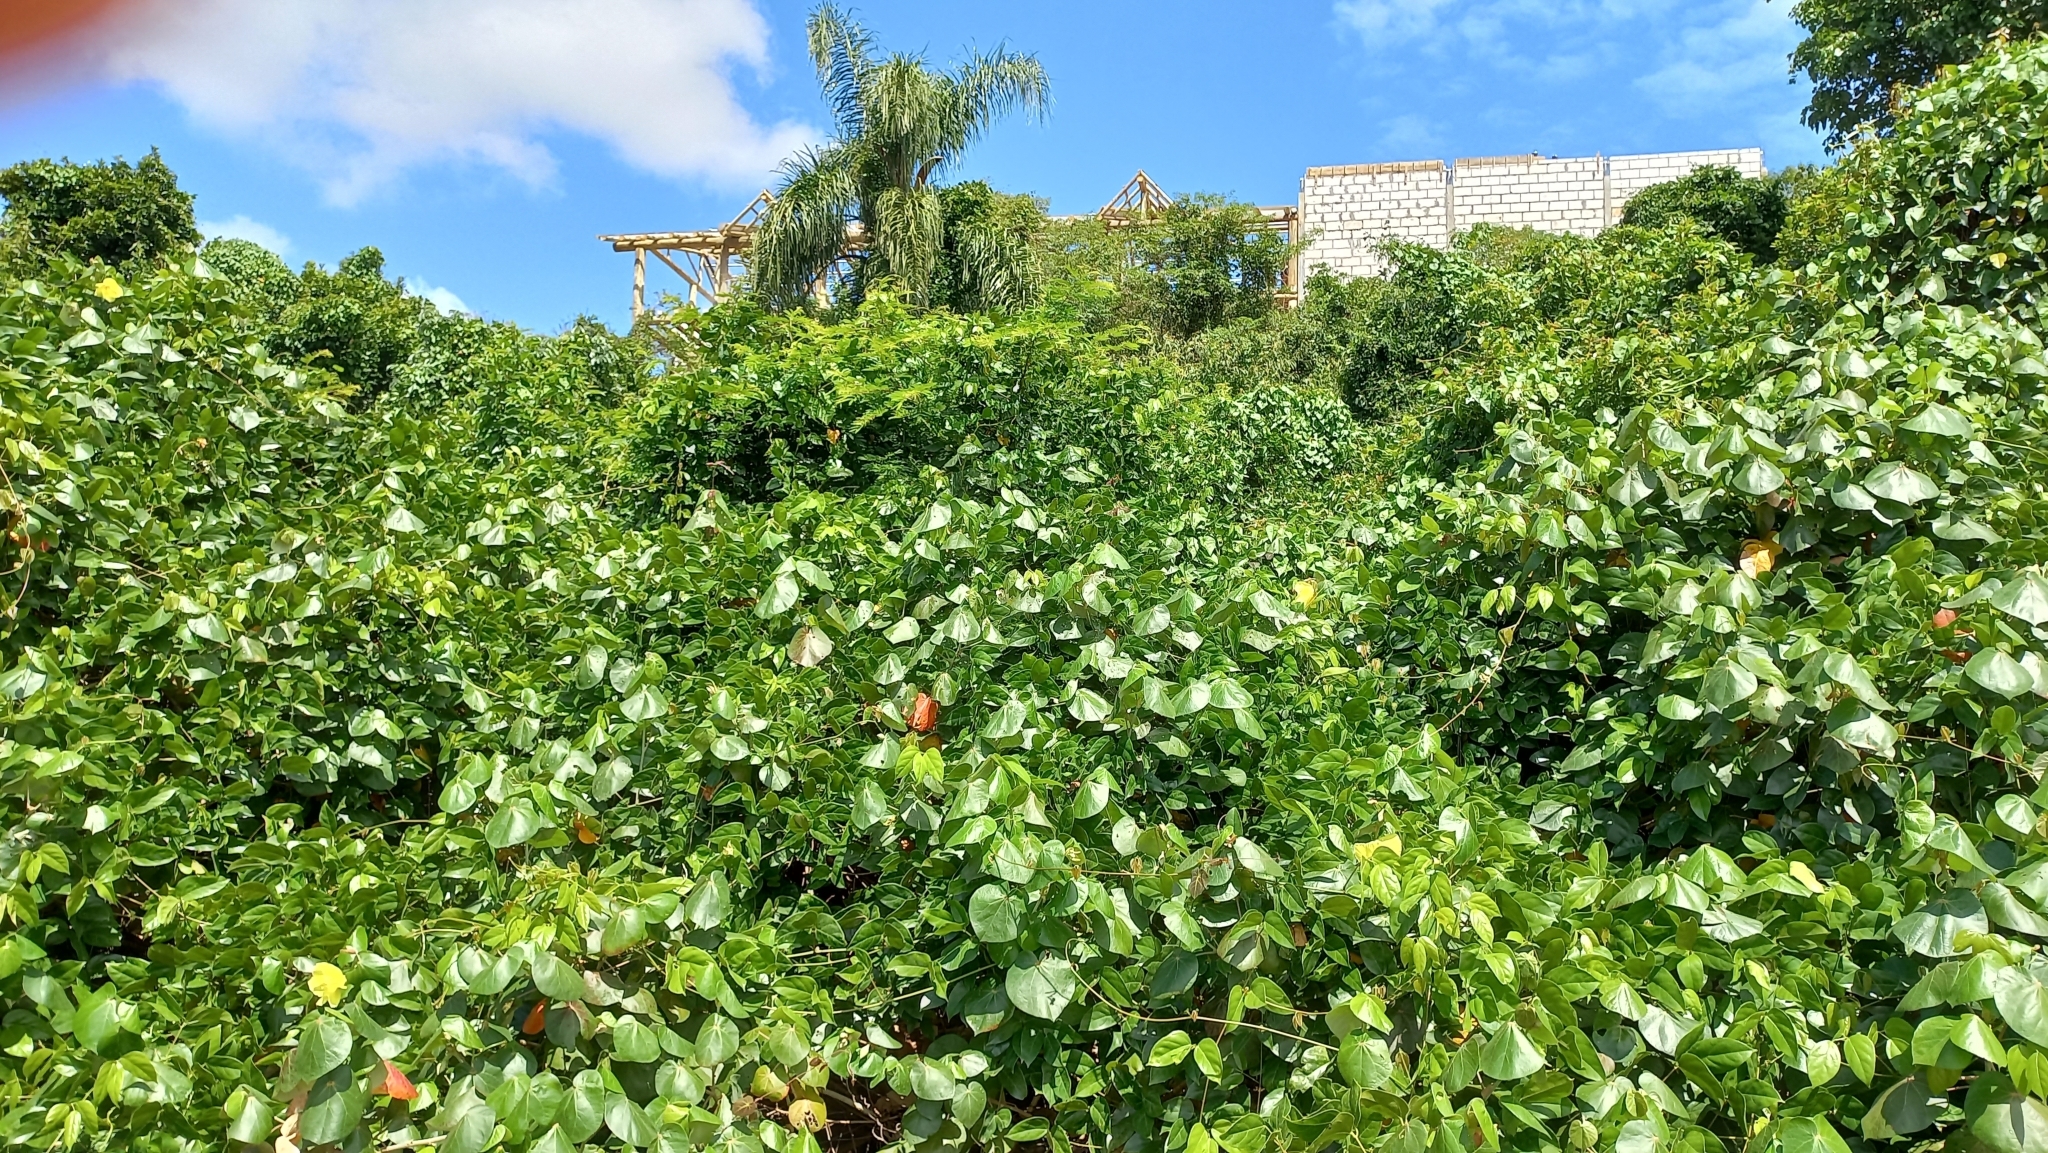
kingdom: Plantae
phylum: Tracheophyta
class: Magnoliopsida
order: Malvales
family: Malvaceae
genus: Talipariti
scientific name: Talipariti pernambucense
